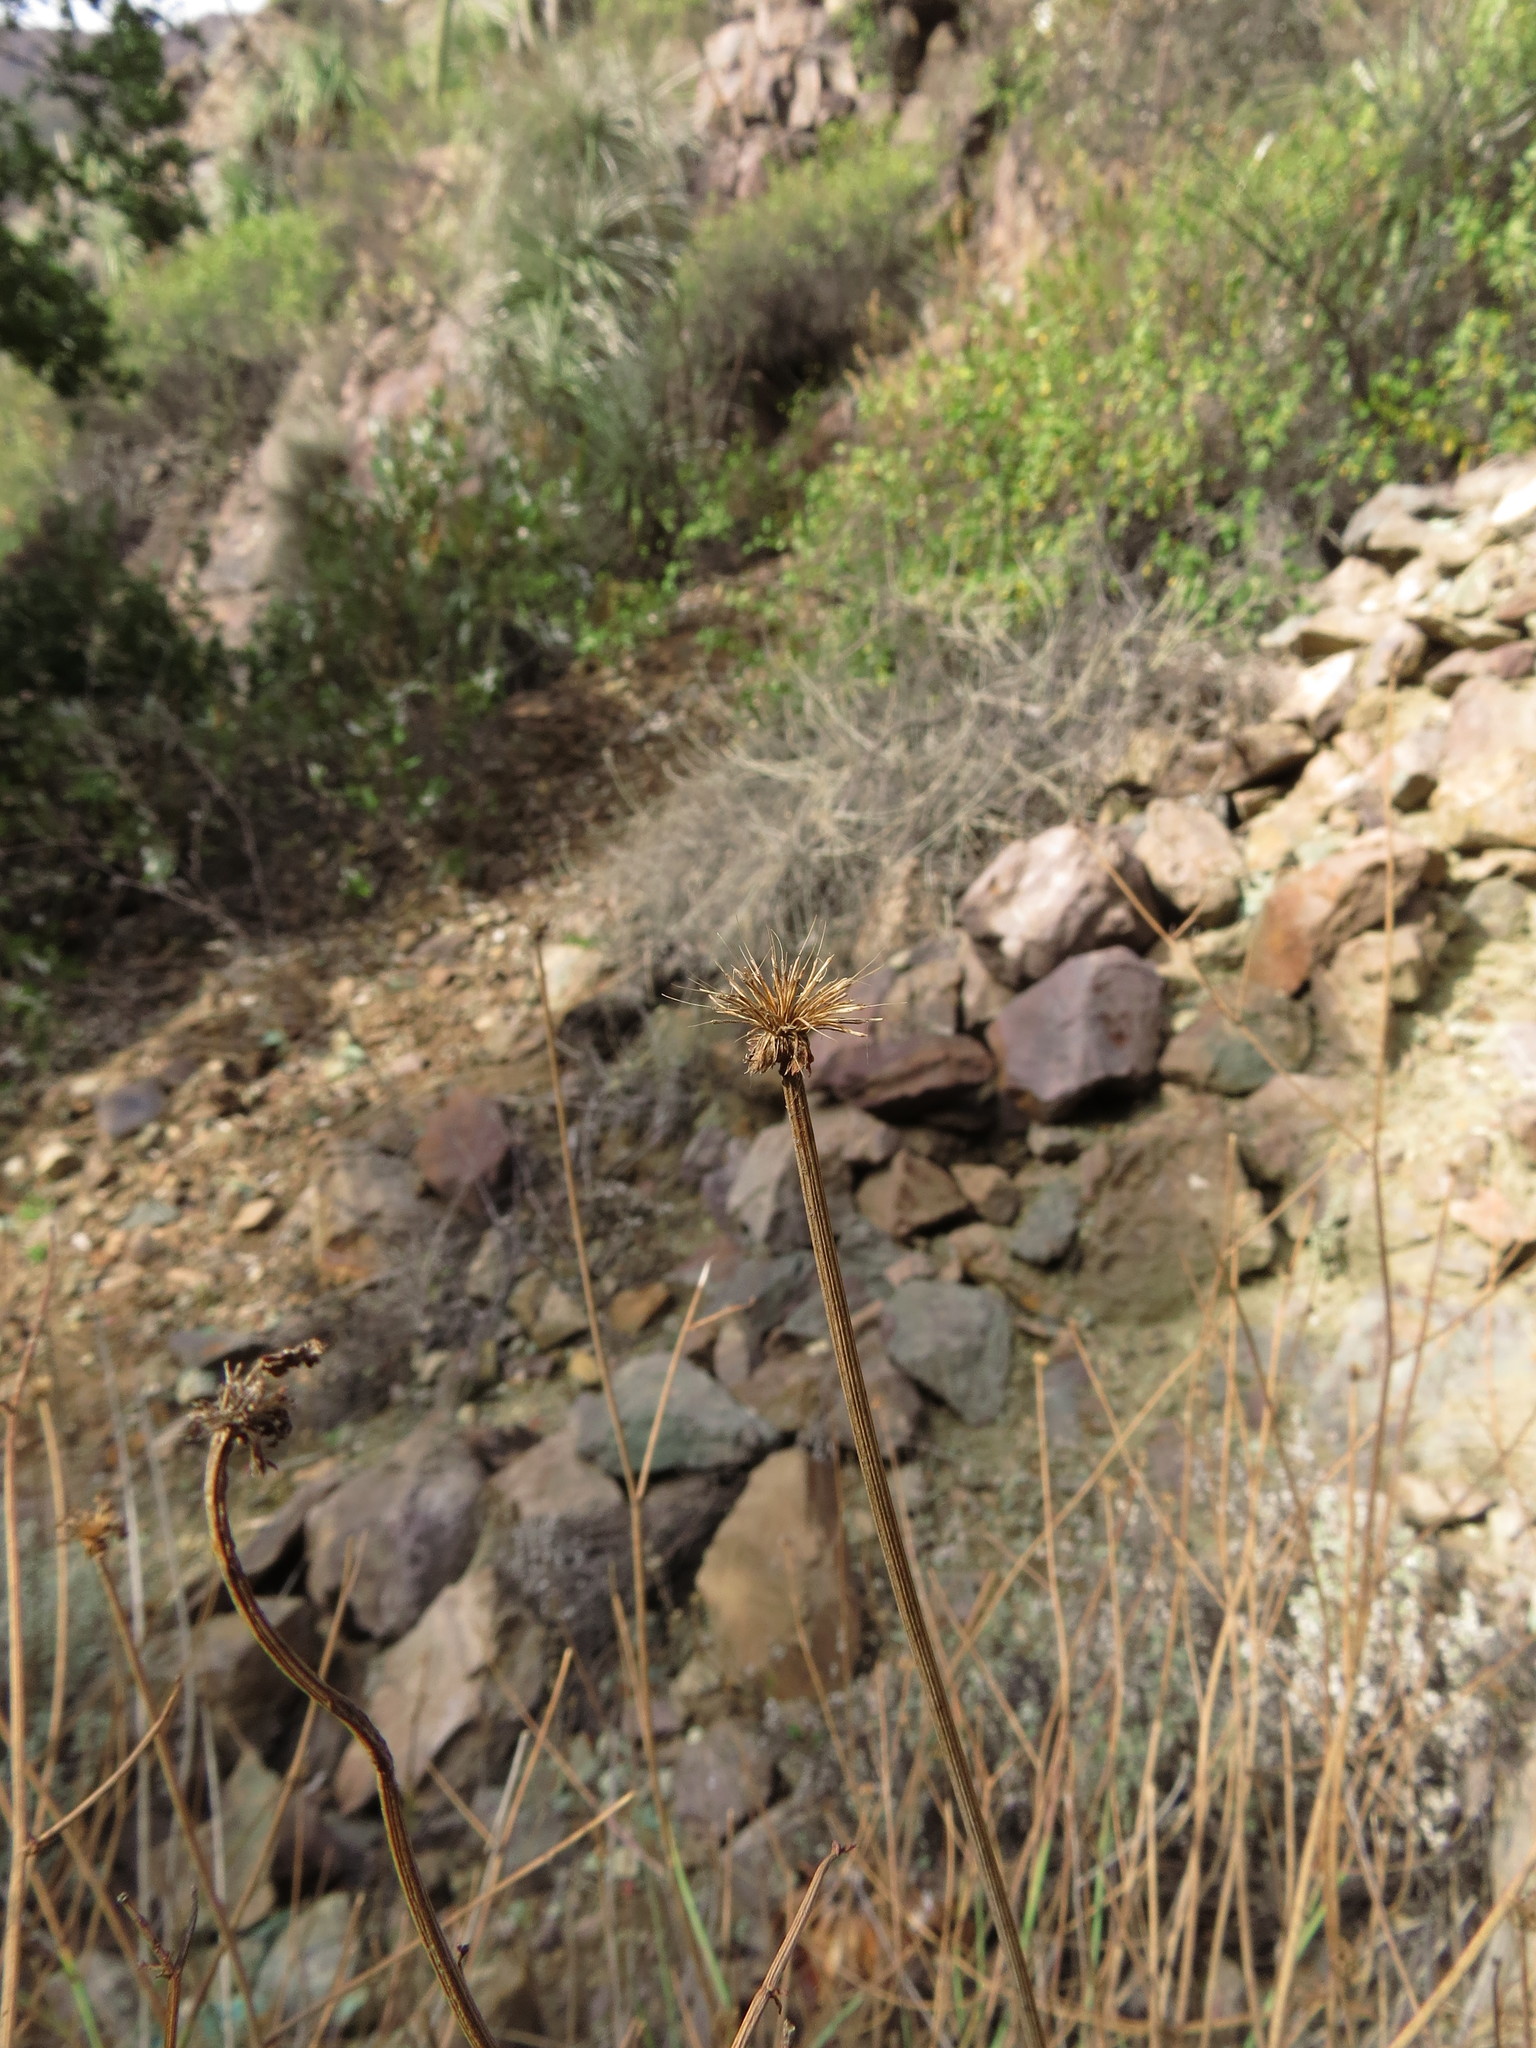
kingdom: Plantae
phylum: Tracheophyta
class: Magnoliopsida
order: Apiales
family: Apiaceae
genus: Asteriscium
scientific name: Asteriscium chilense
